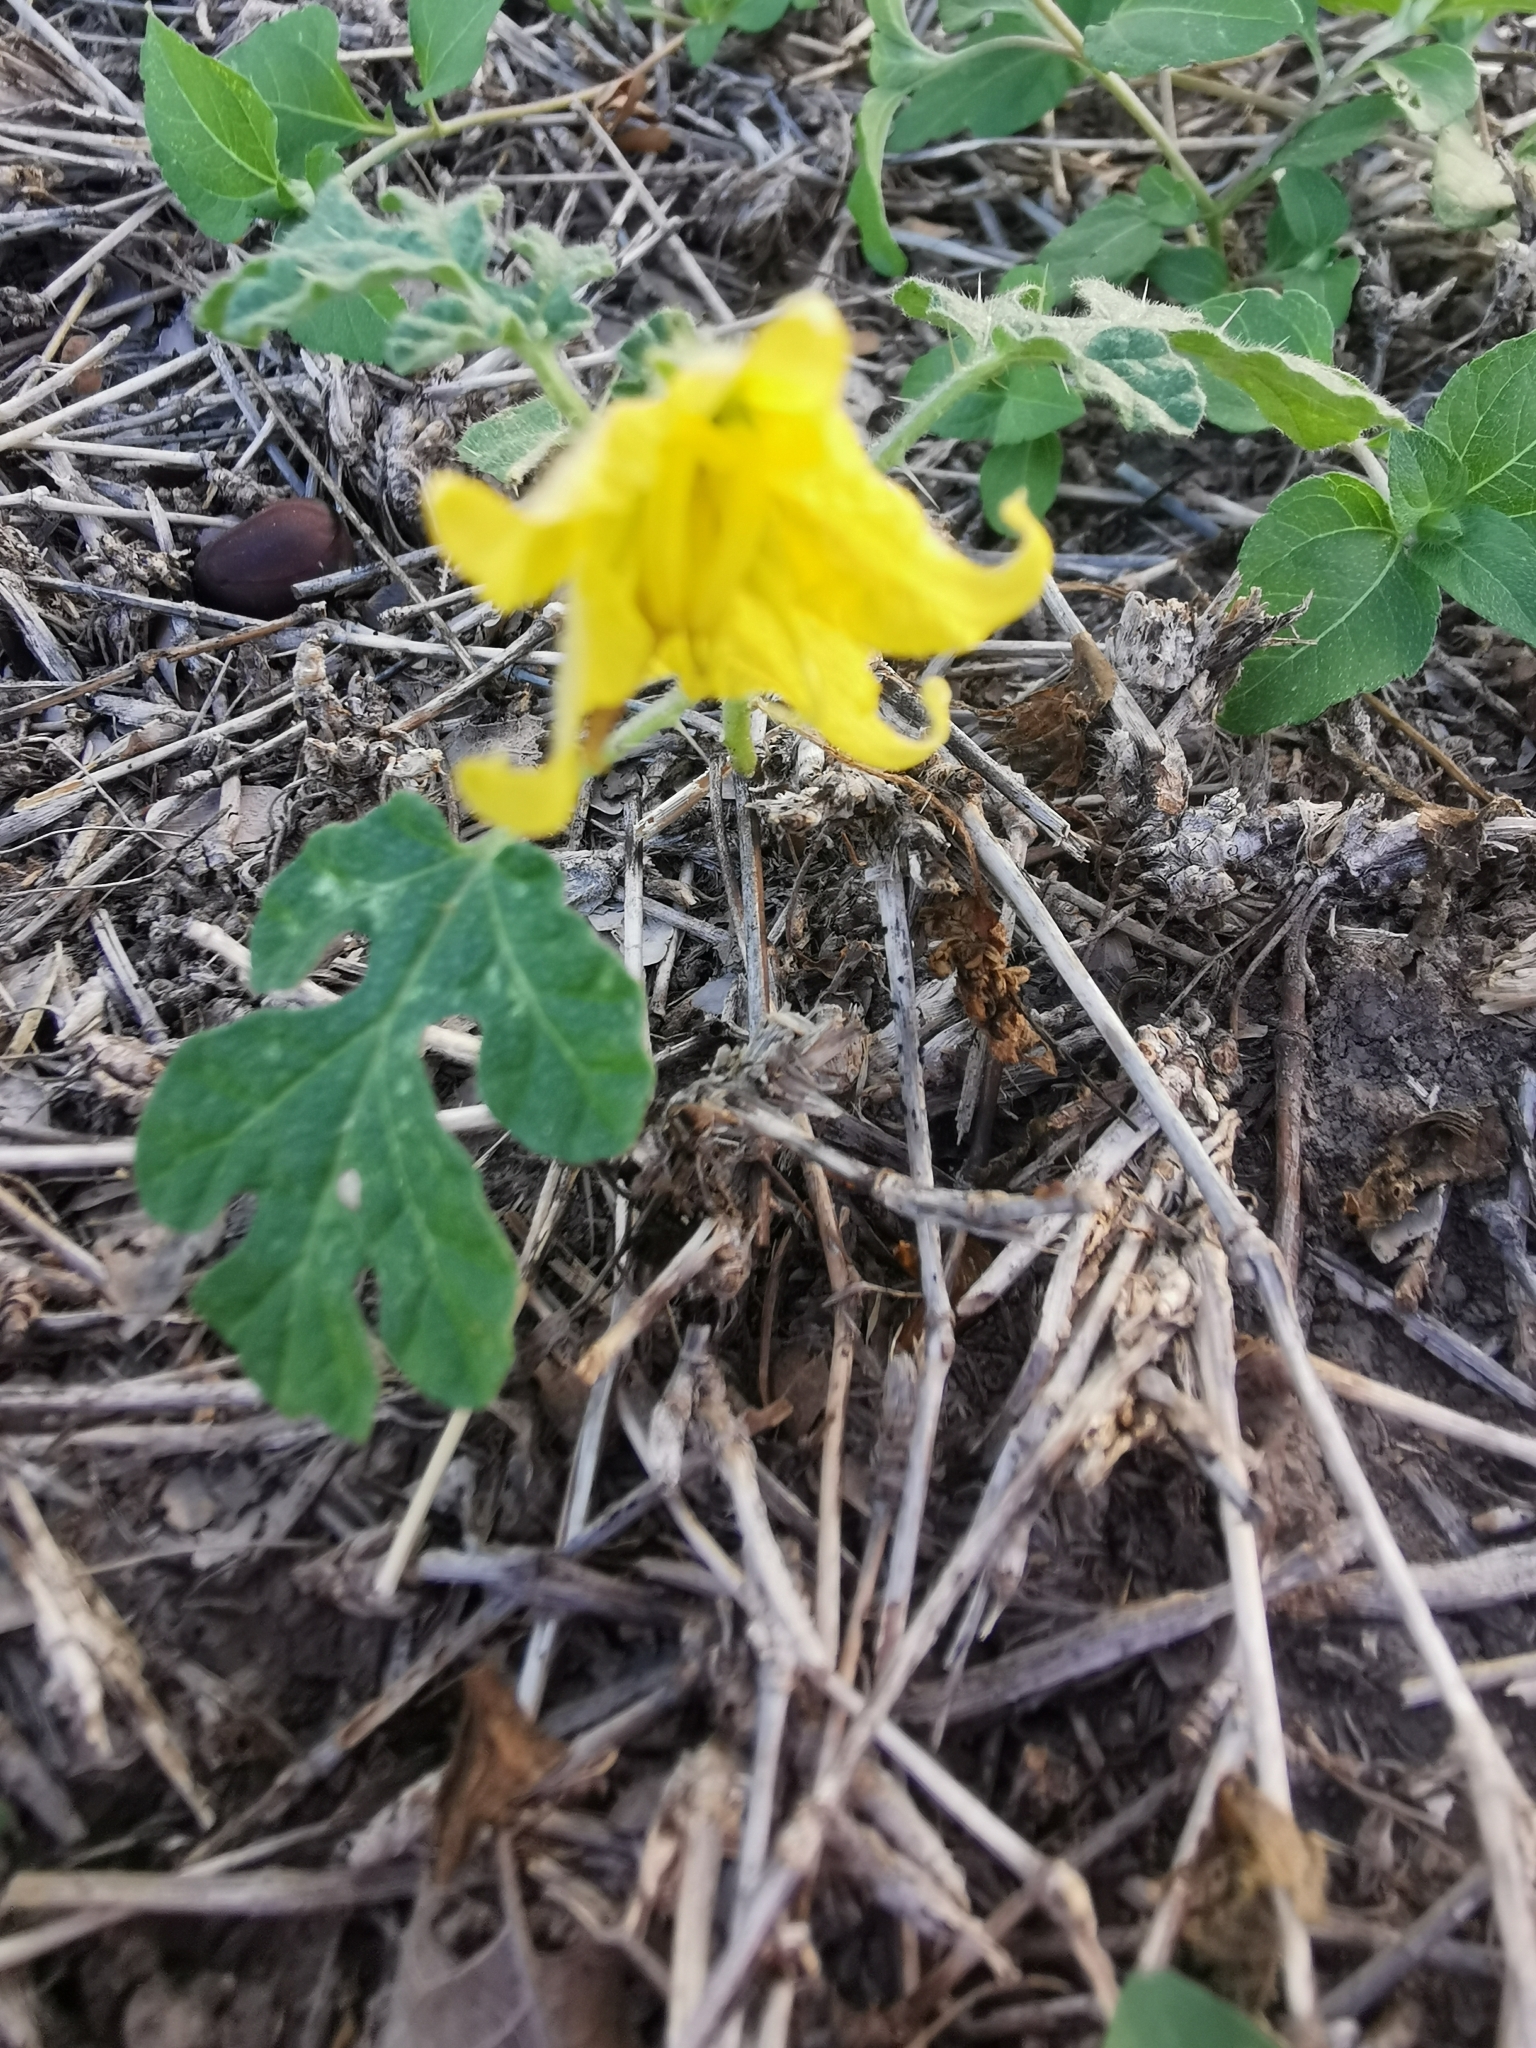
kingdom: Plantae
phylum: Tracheophyta
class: Magnoliopsida
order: Solanales
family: Solanaceae
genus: Solanum
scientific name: Solanum angustifolium
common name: Buffalobur nightshade
